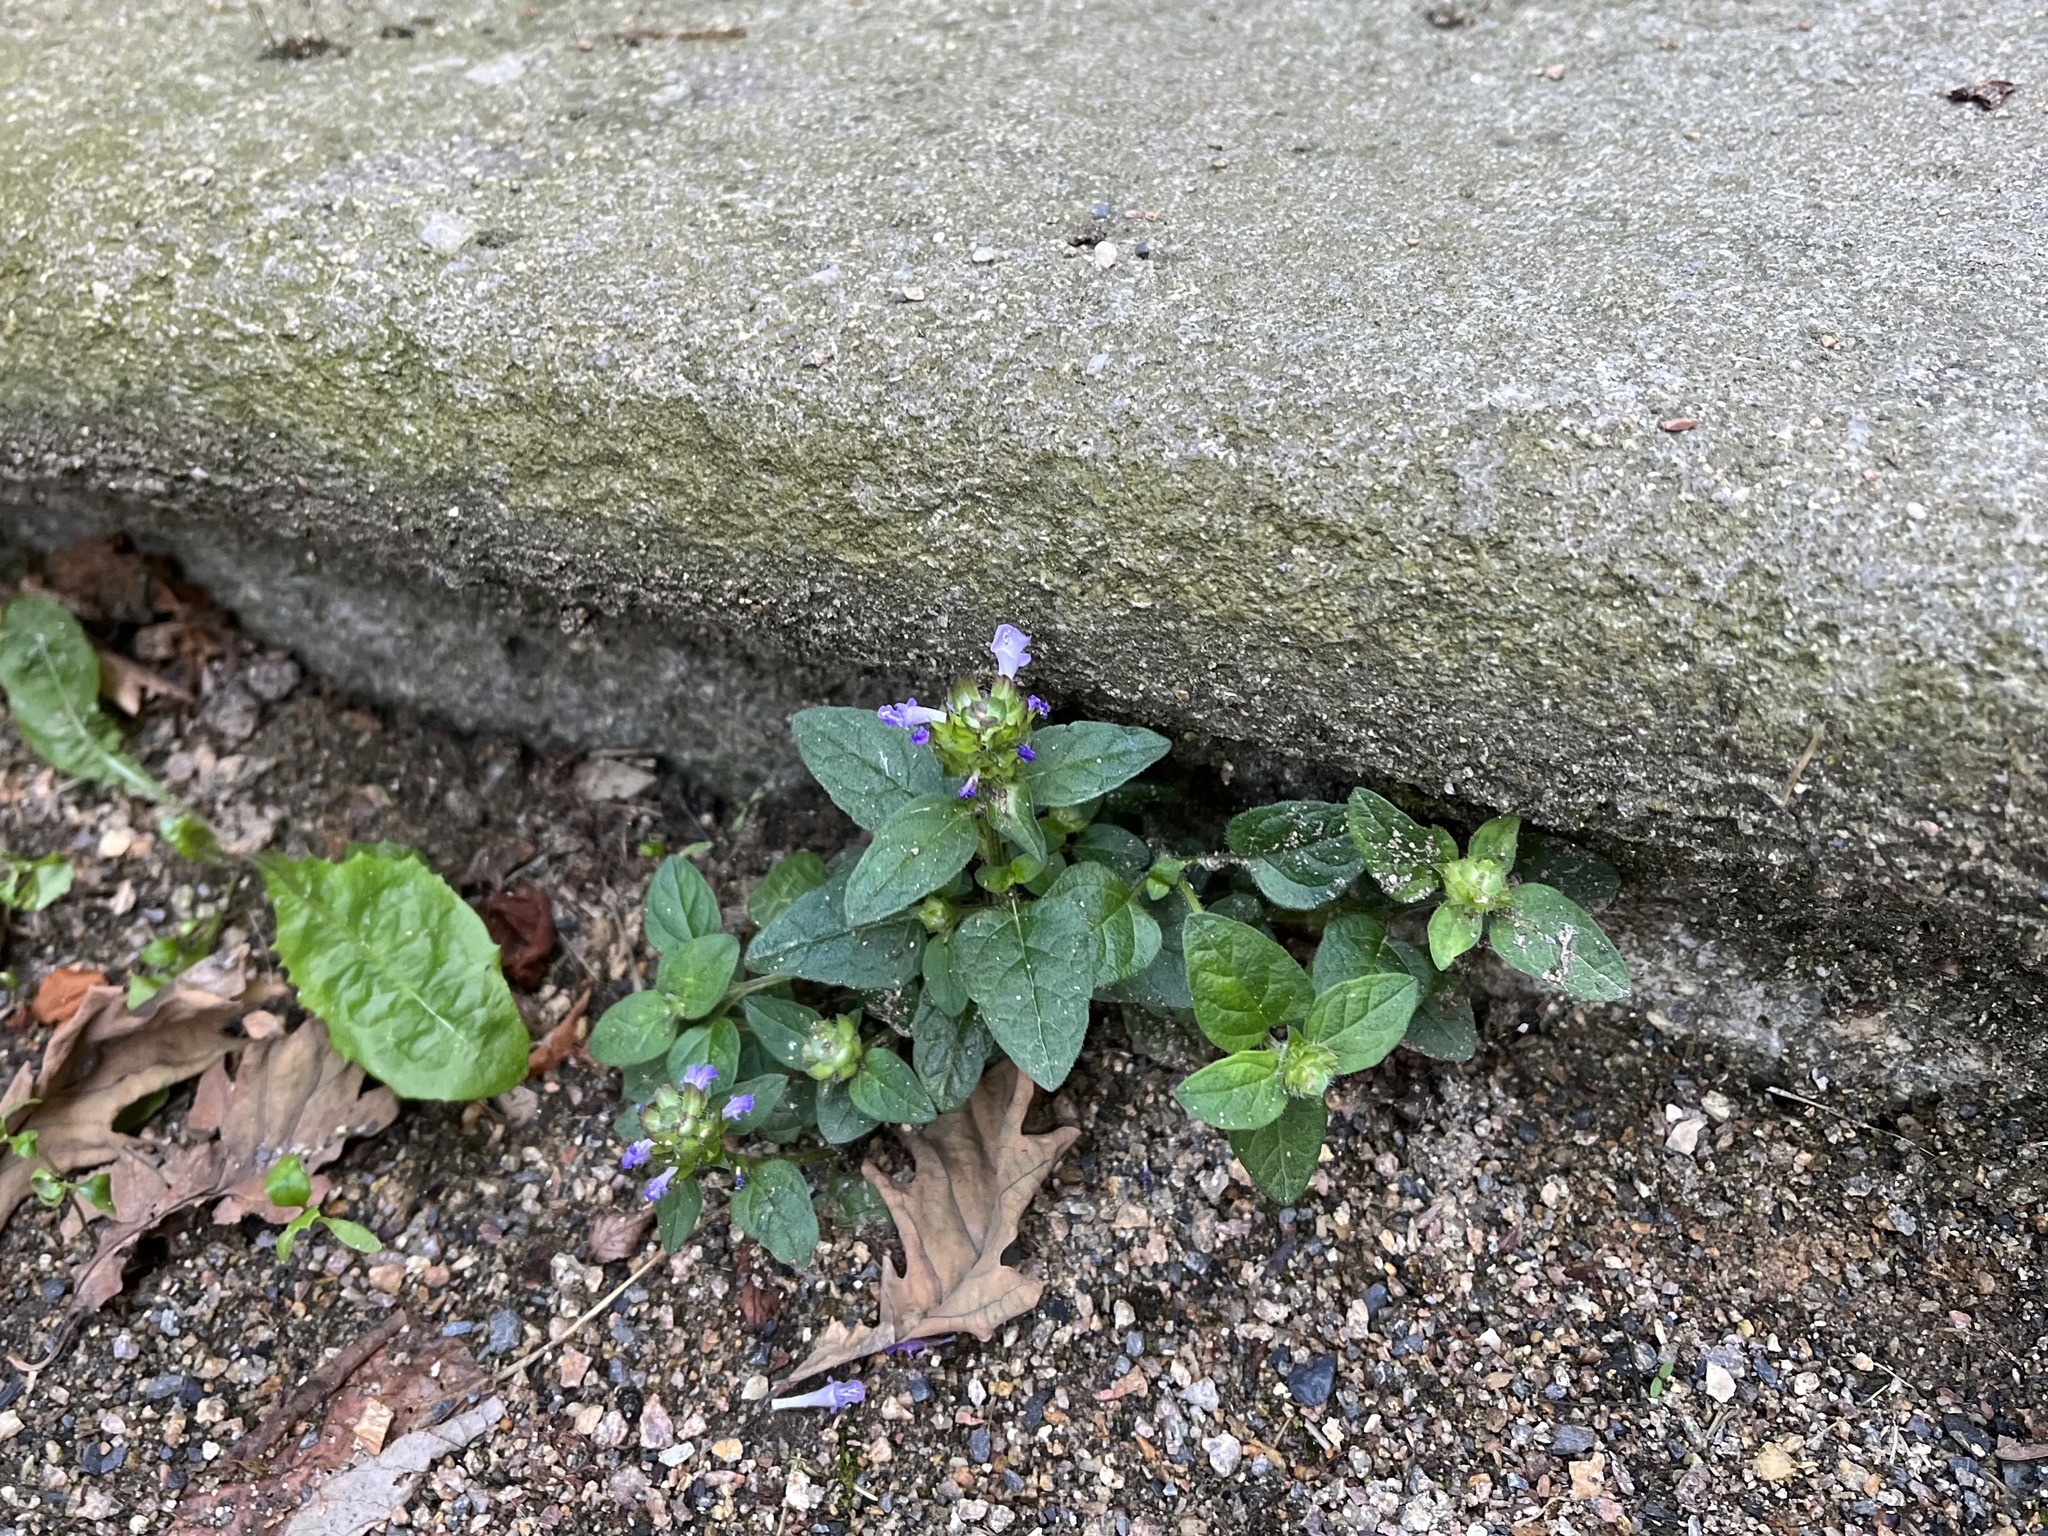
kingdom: Plantae
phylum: Tracheophyta
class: Magnoliopsida
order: Lamiales
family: Lamiaceae
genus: Prunella
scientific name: Prunella vulgaris
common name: Heal-all
